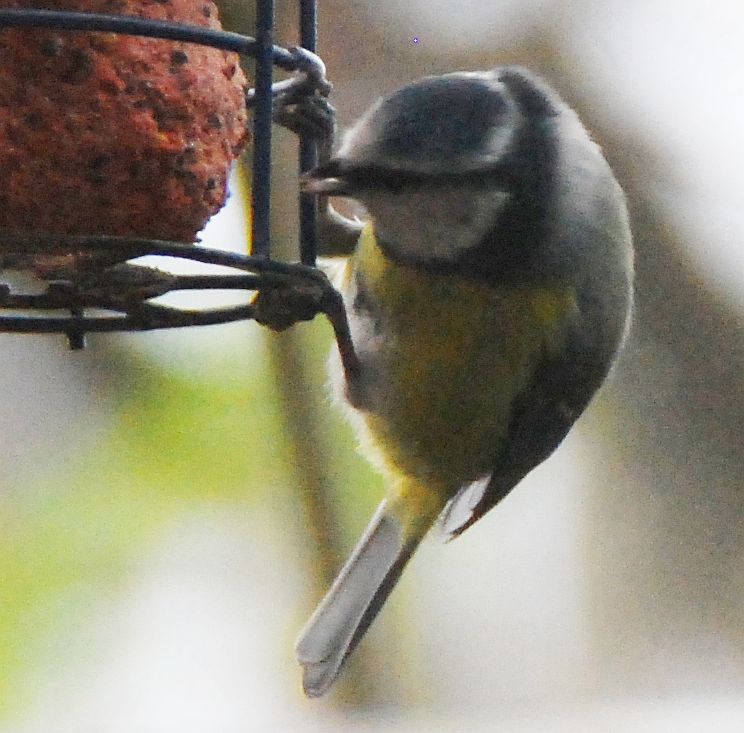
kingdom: Animalia
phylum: Chordata
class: Aves
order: Passeriformes
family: Paridae
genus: Cyanistes
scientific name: Cyanistes caeruleus
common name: Eurasian blue tit
